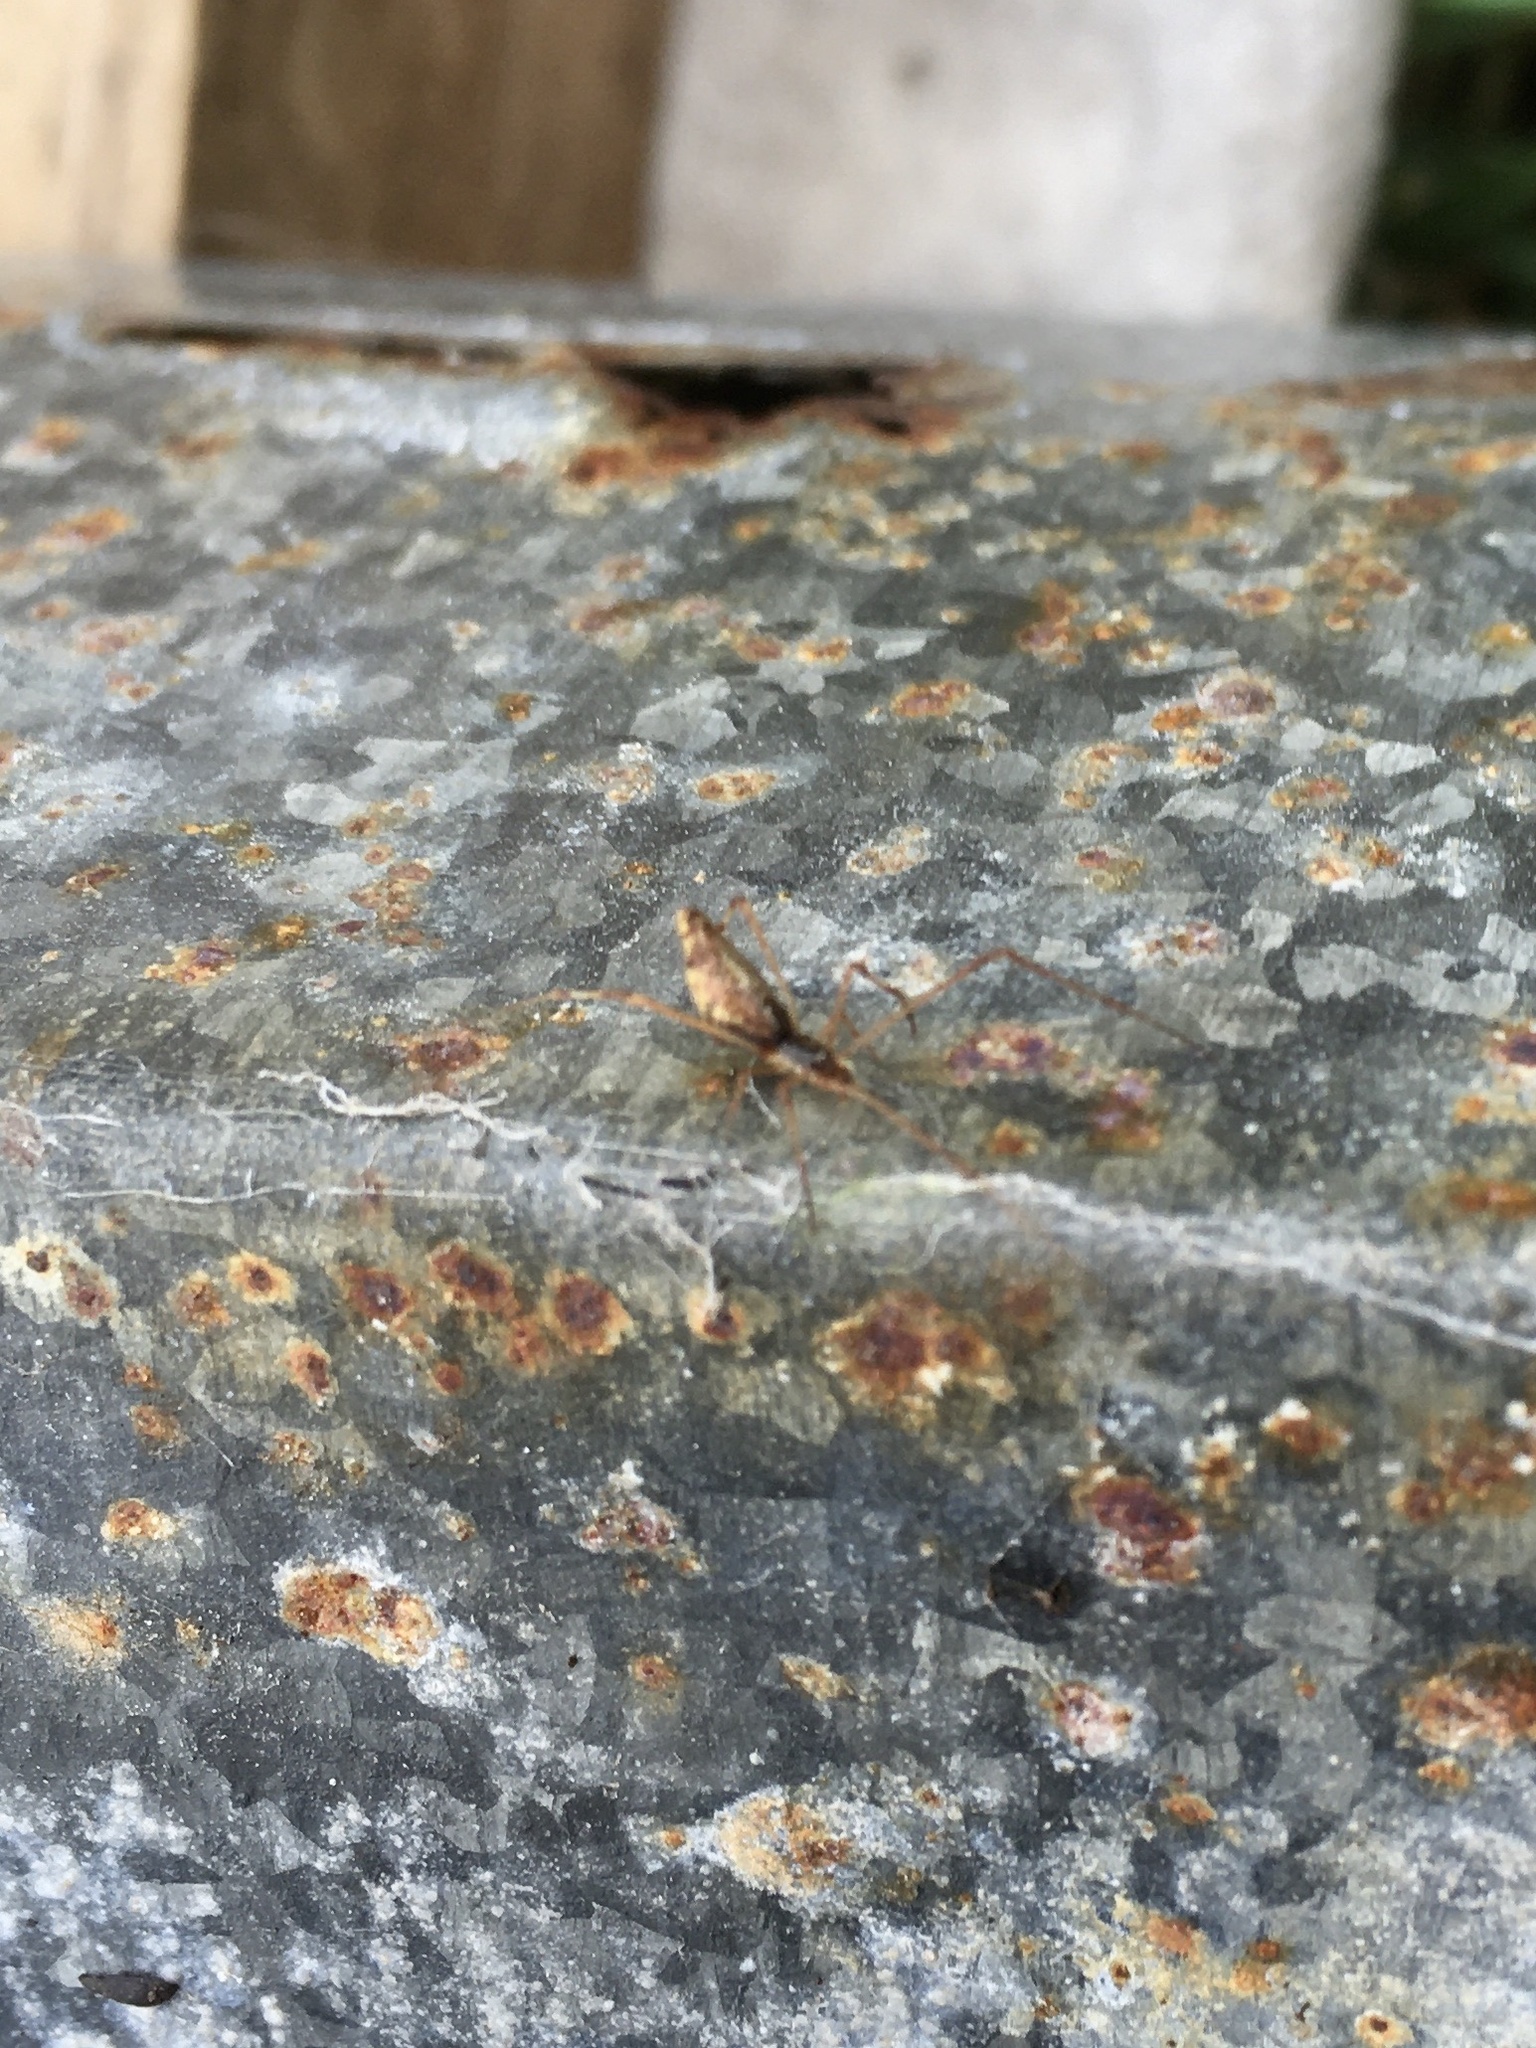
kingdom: Animalia
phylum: Arthropoda
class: Arachnida
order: Araneae
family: Theridiidae
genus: Rhomphaea
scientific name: Rhomphaea urquharti
